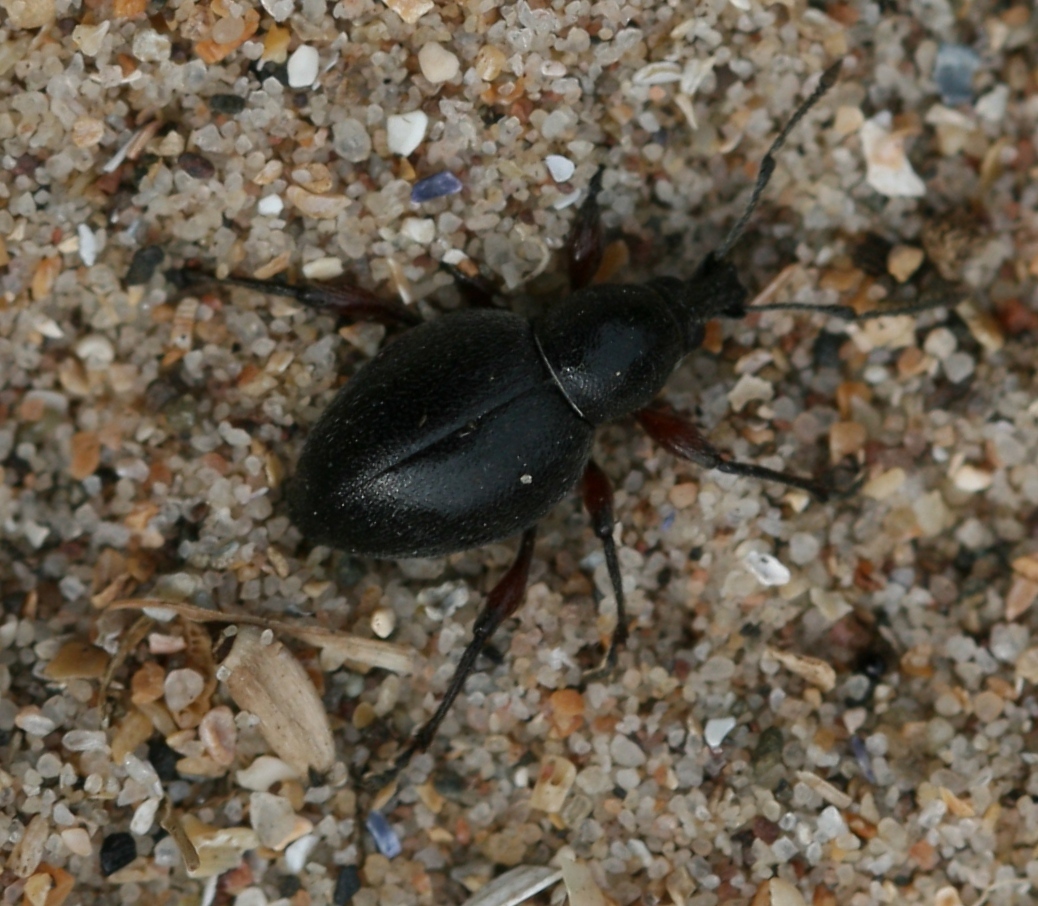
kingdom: Animalia
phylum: Arthropoda
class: Insecta
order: Coleoptera
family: Curculionidae
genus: Otiorhynchus
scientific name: Otiorhynchus atroapterus
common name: Black marram weevil
